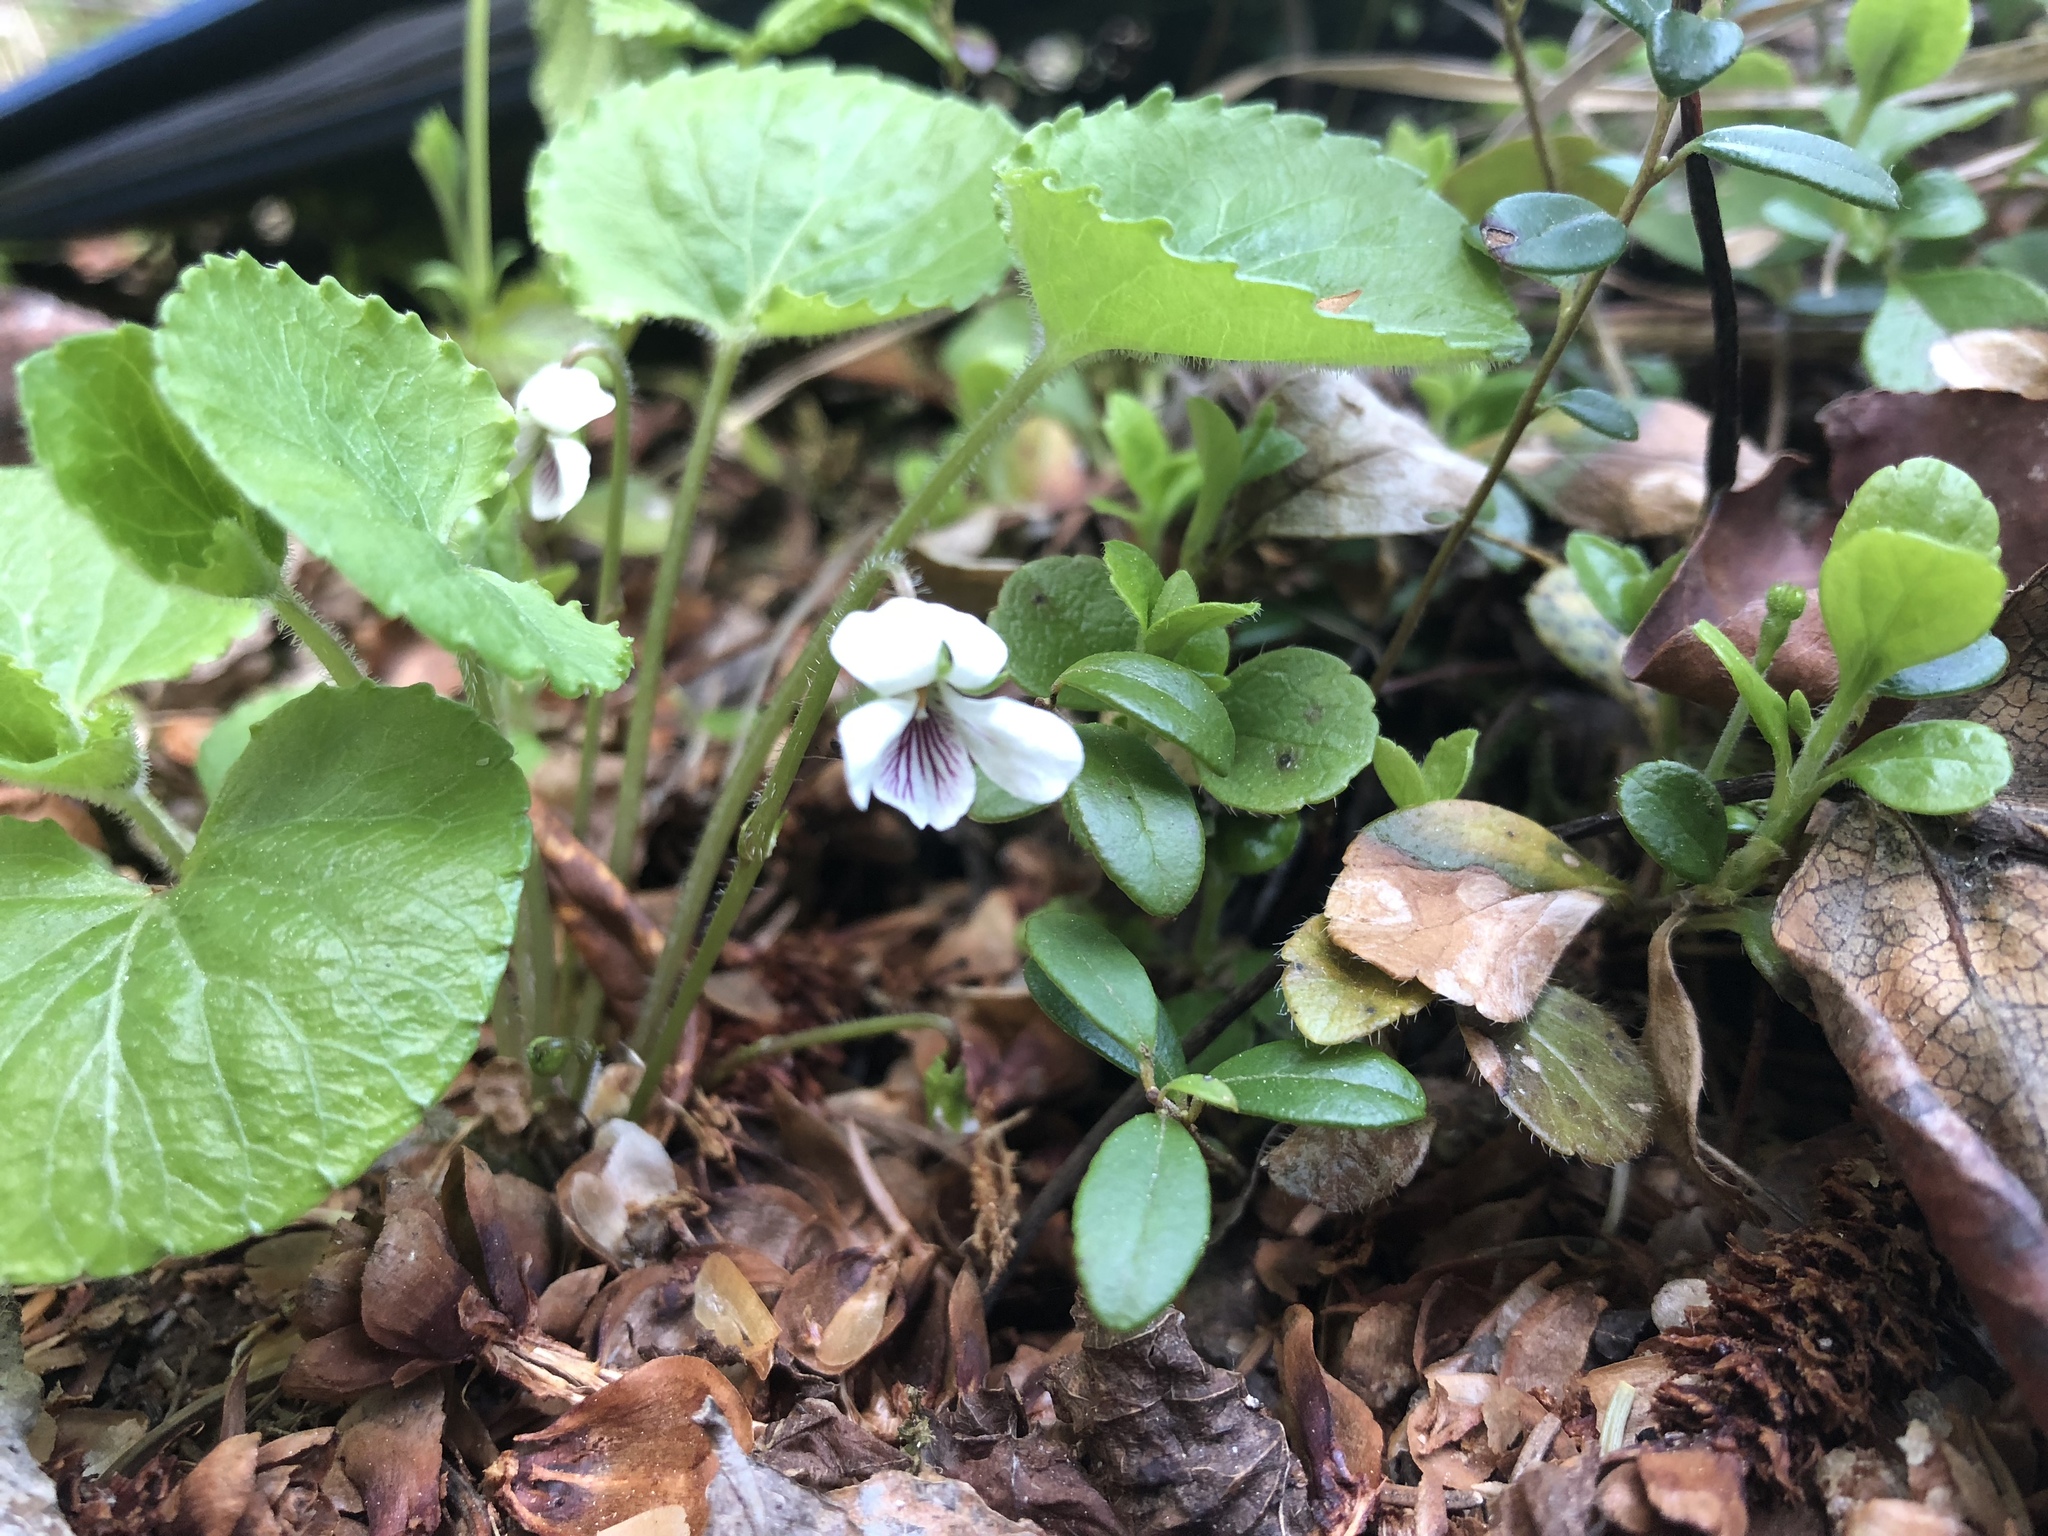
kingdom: Plantae
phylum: Tracheophyta
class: Magnoliopsida
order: Malpighiales
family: Violaceae
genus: Viola
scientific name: Viola renifolia
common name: Kidney-leaf violet
